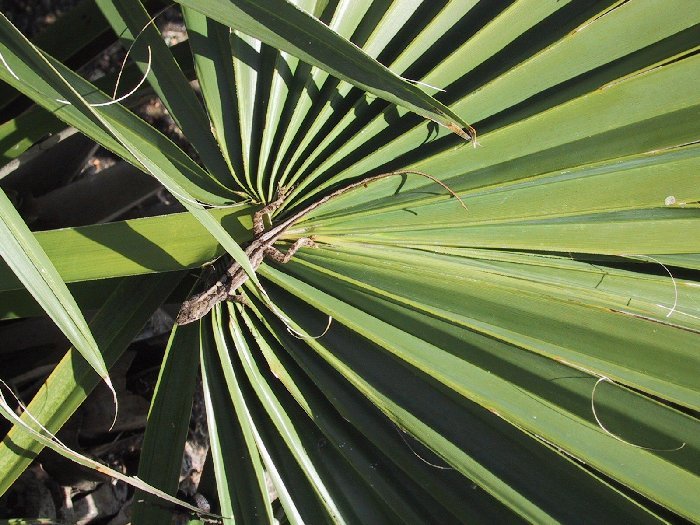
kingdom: Animalia
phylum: Chordata
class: Squamata
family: Dactyloidae
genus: Anolis
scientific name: Anolis sagrei
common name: Brown anole
